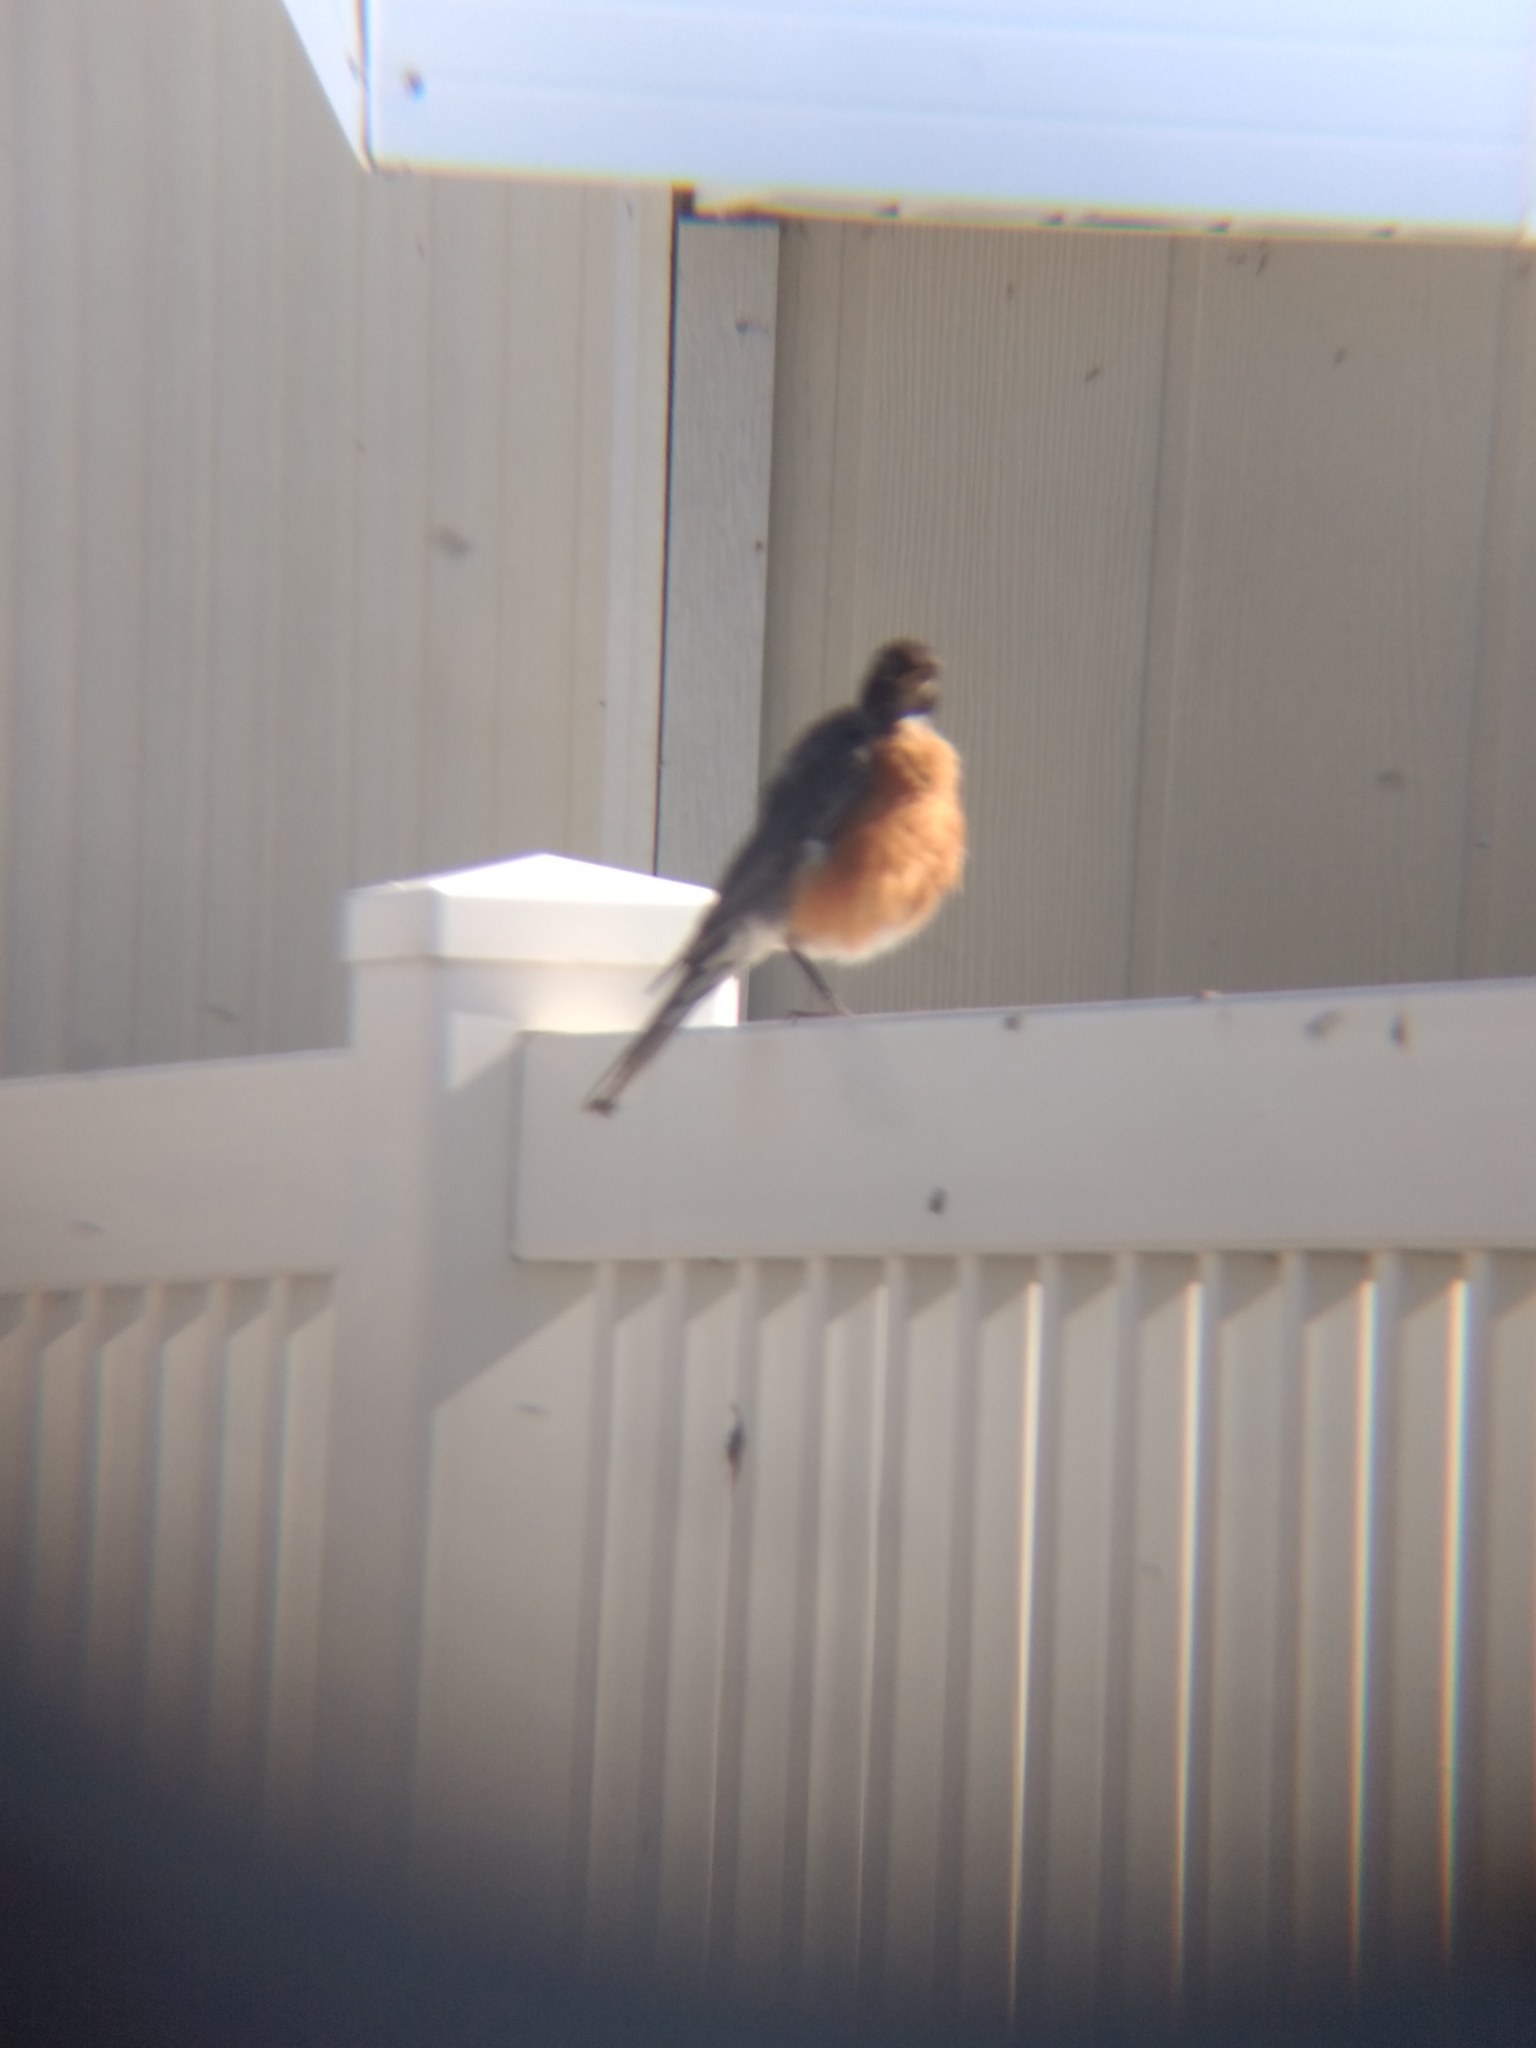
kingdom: Animalia
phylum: Chordata
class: Aves
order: Passeriformes
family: Turdidae
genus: Turdus
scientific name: Turdus migratorius
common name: American robin
